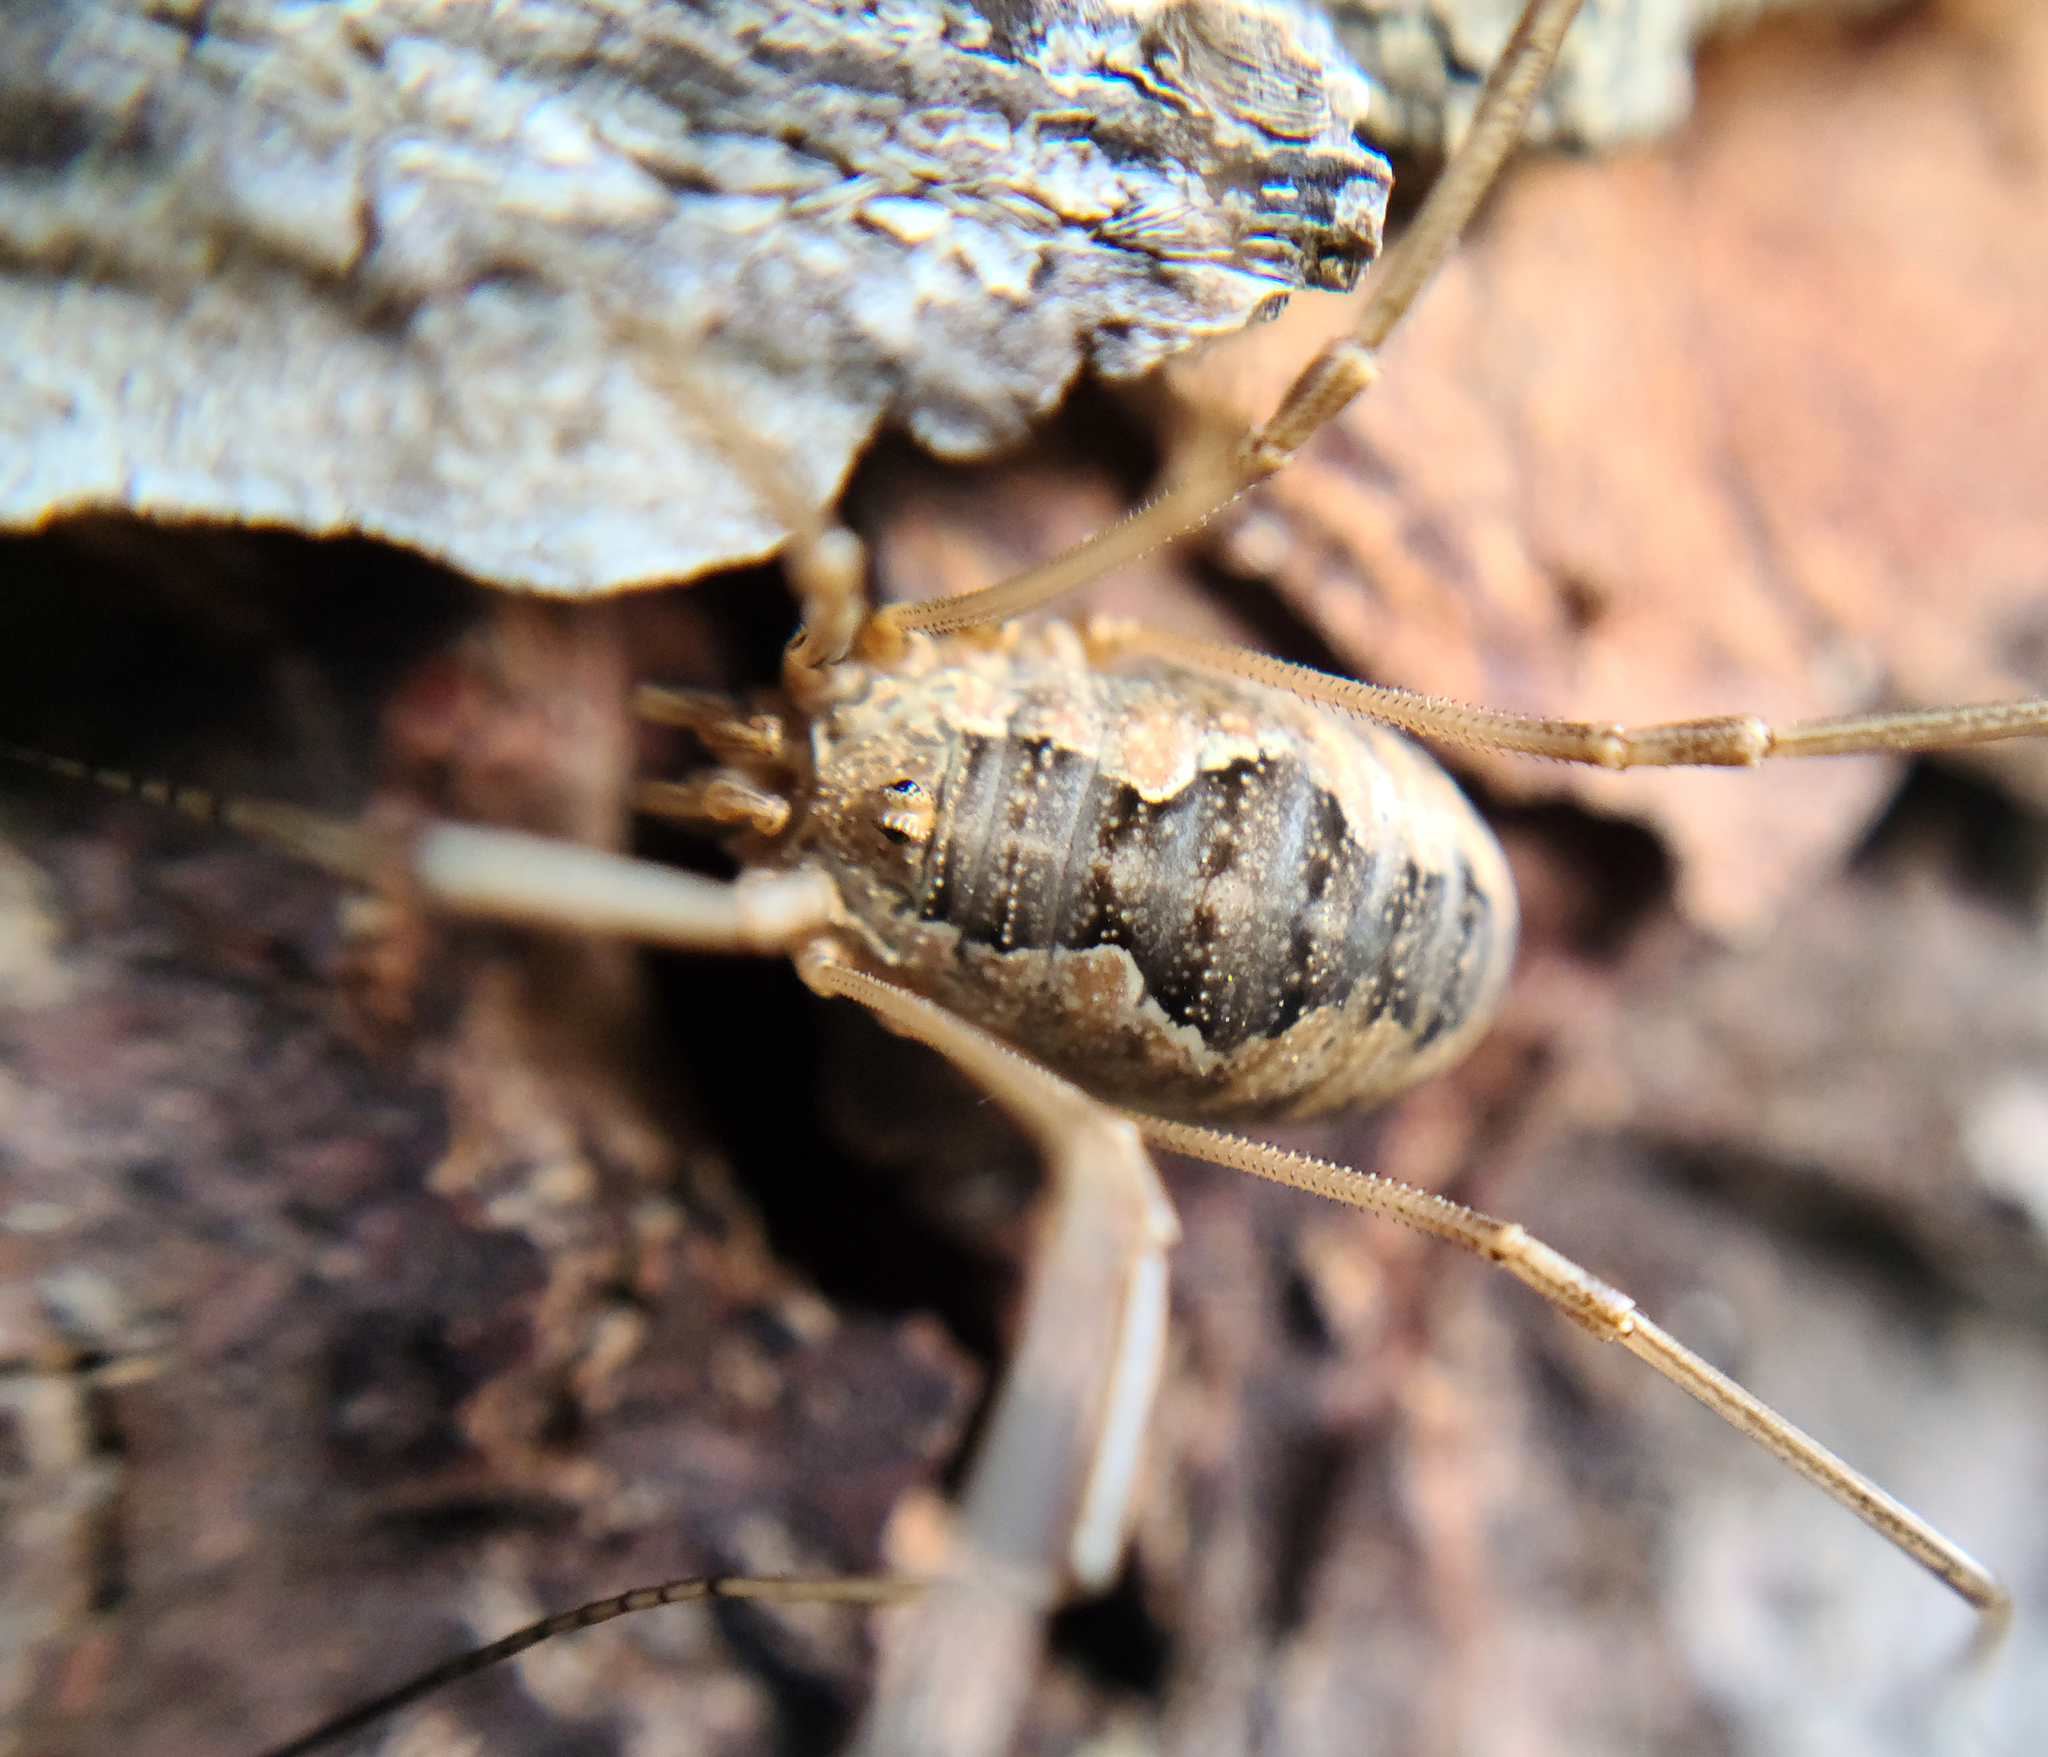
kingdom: Animalia
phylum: Arthropoda
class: Arachnida
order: Opiliones
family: Phalangiidae
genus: Phalangium
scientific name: Phalangium opilio
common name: Daddy longleg
